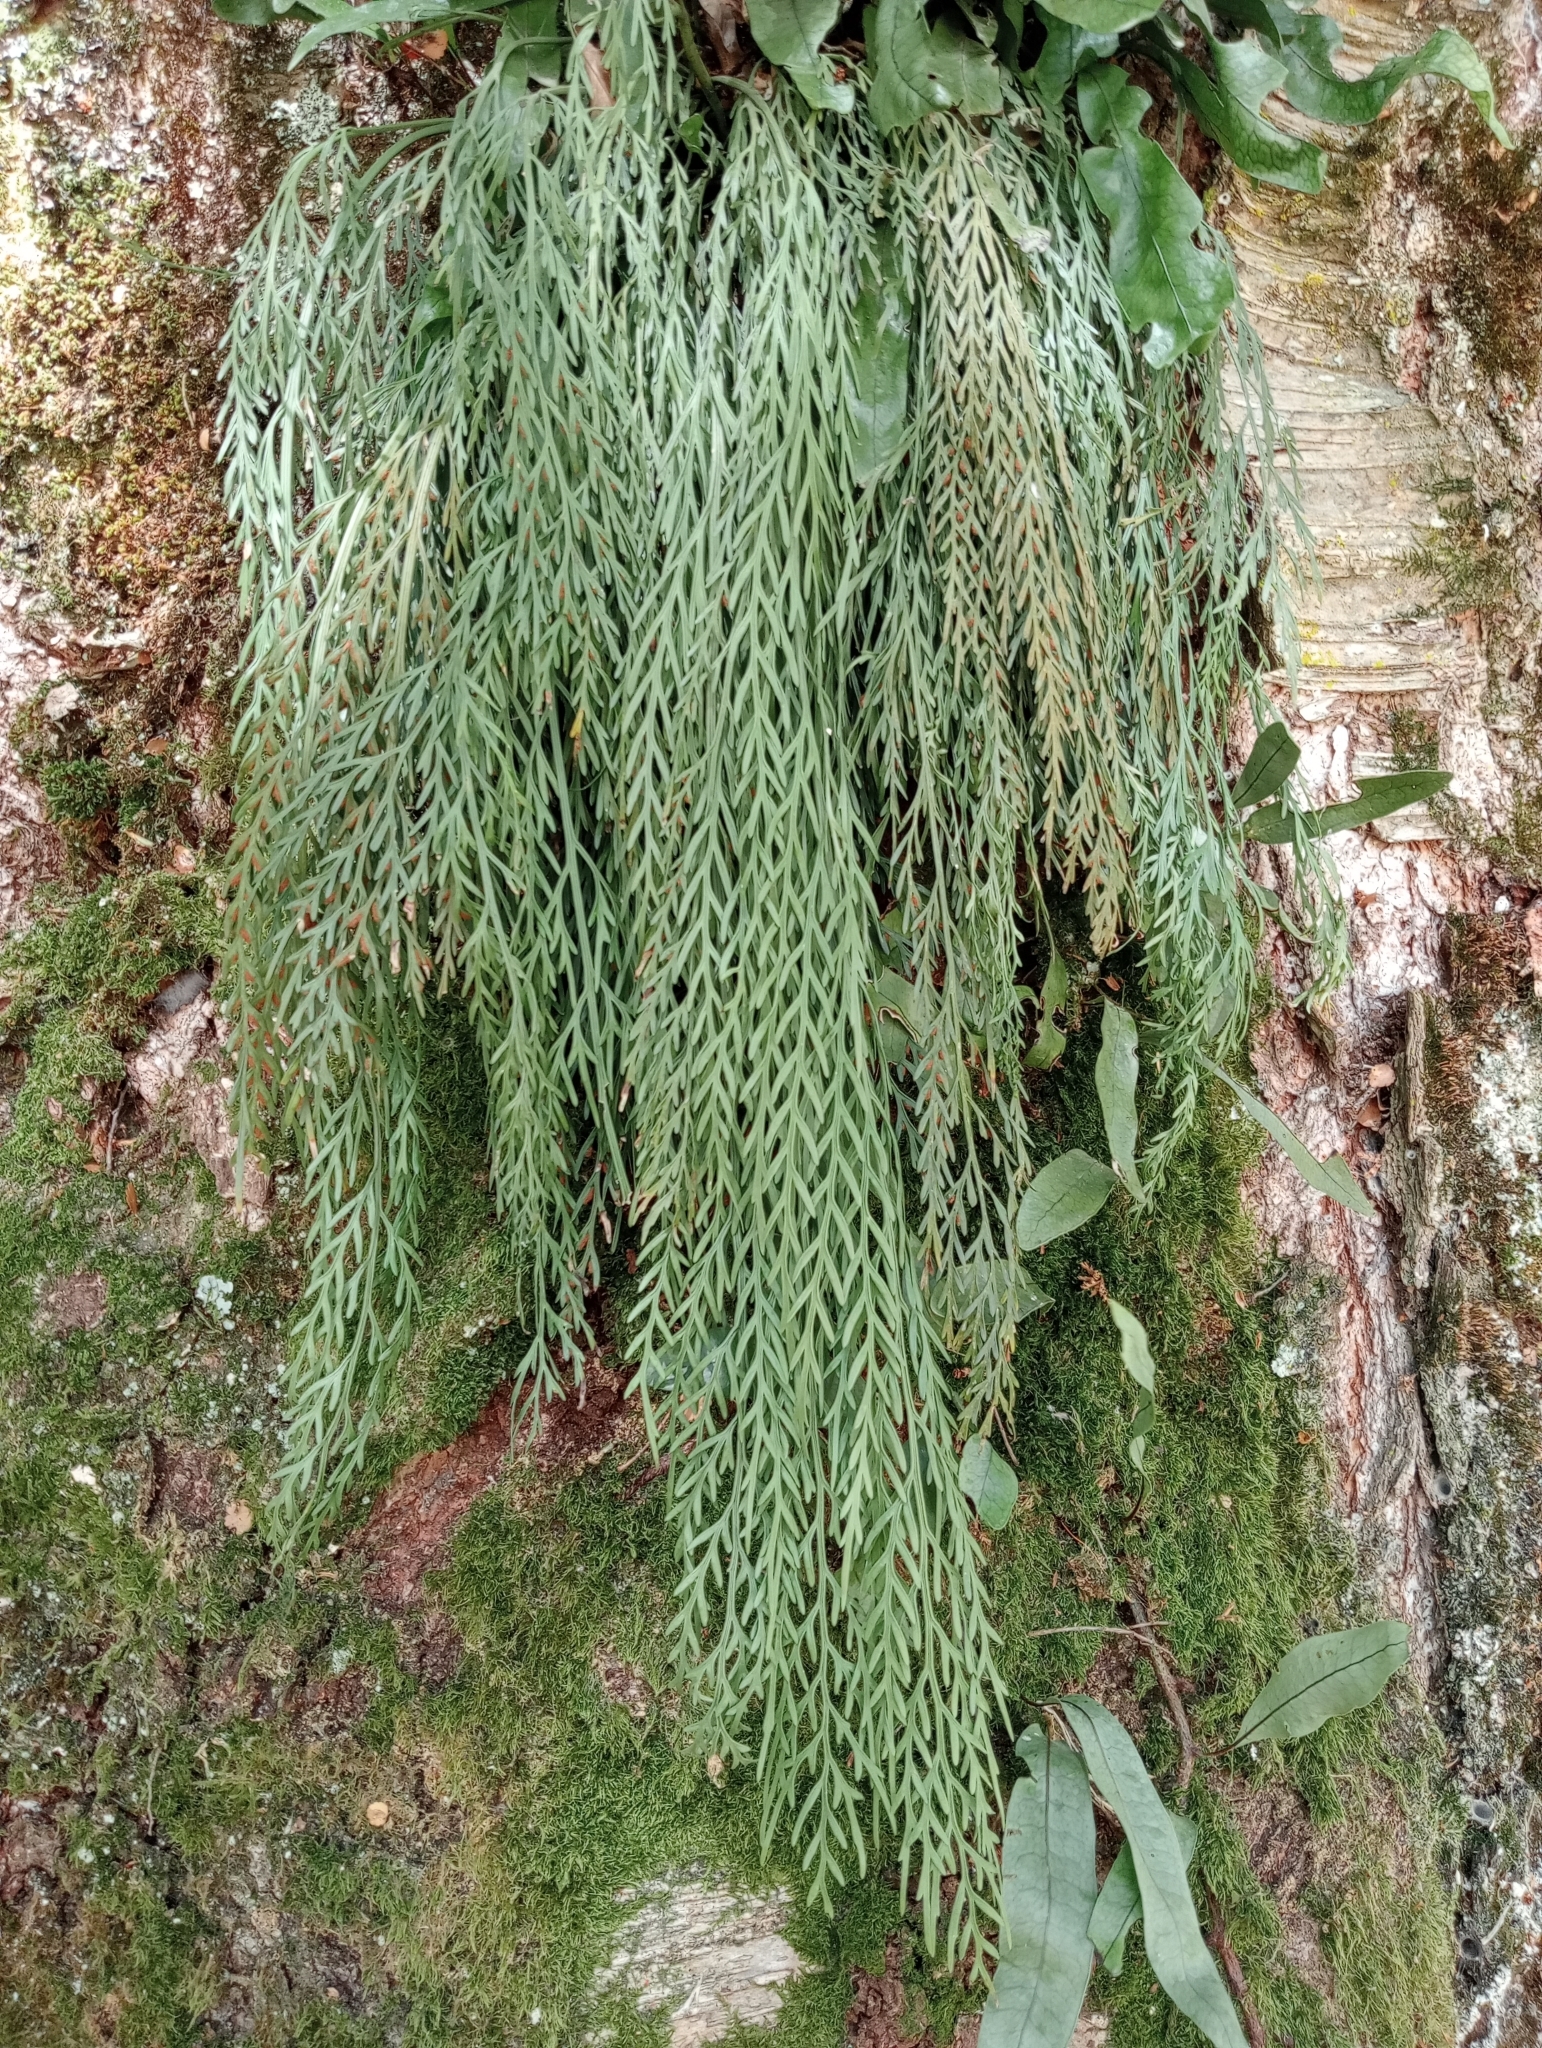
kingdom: Plantae
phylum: Tracheophyta
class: Polypodiopsida
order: Polypodiales
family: Aspleniaceae
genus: Asplenium
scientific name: Asplenium flaccidum
